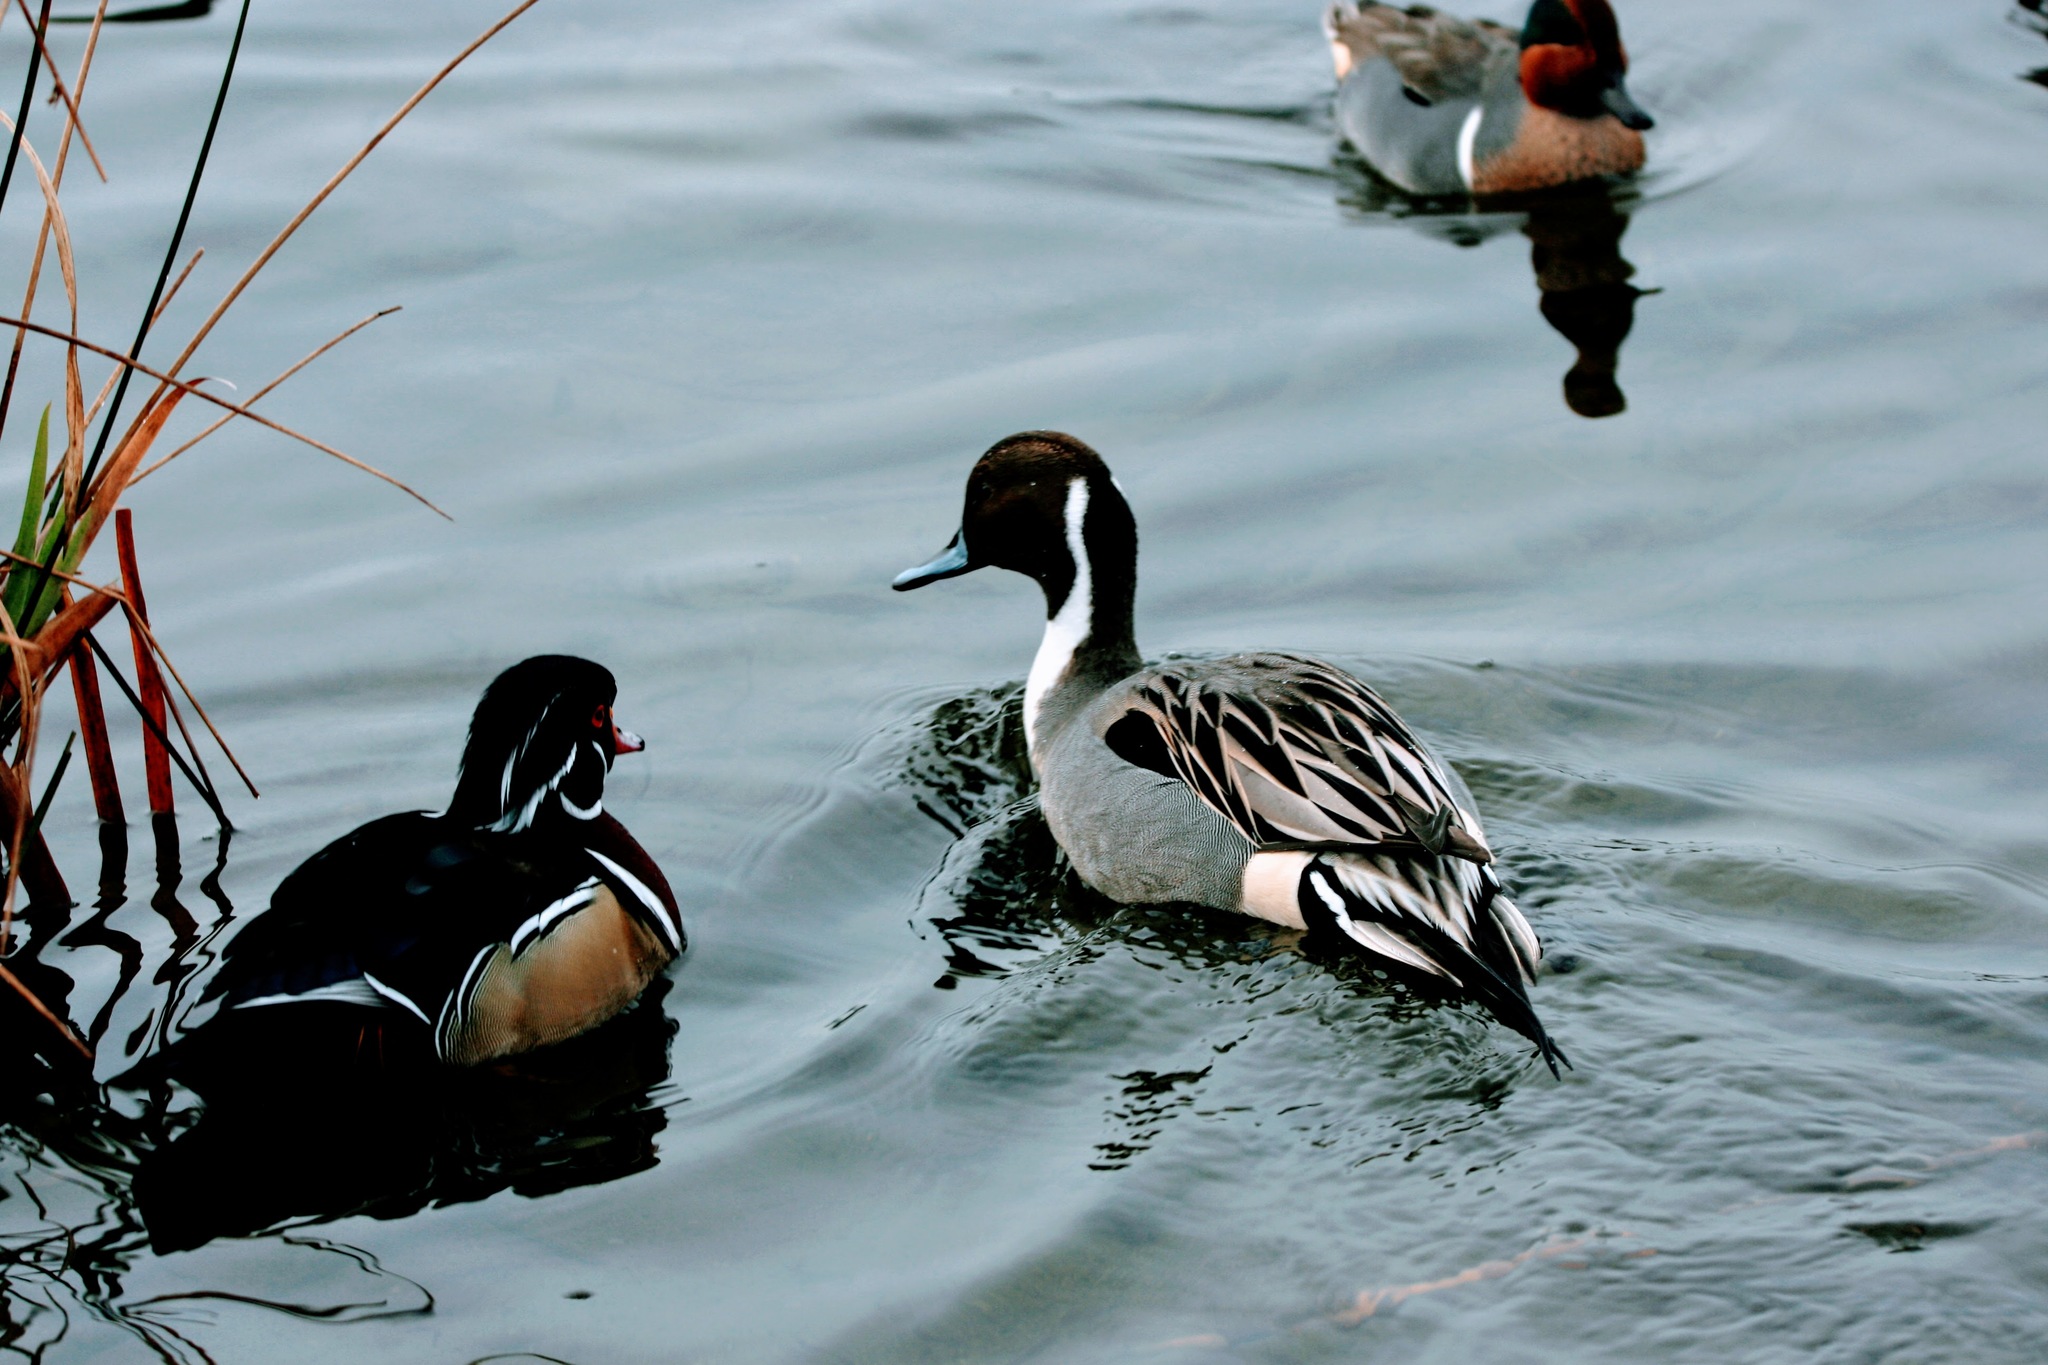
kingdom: Animalia
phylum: Chordata
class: Aves
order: Anseriformes
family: Anatidae
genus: Anas
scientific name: Anas acuta
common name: Northern pintail
